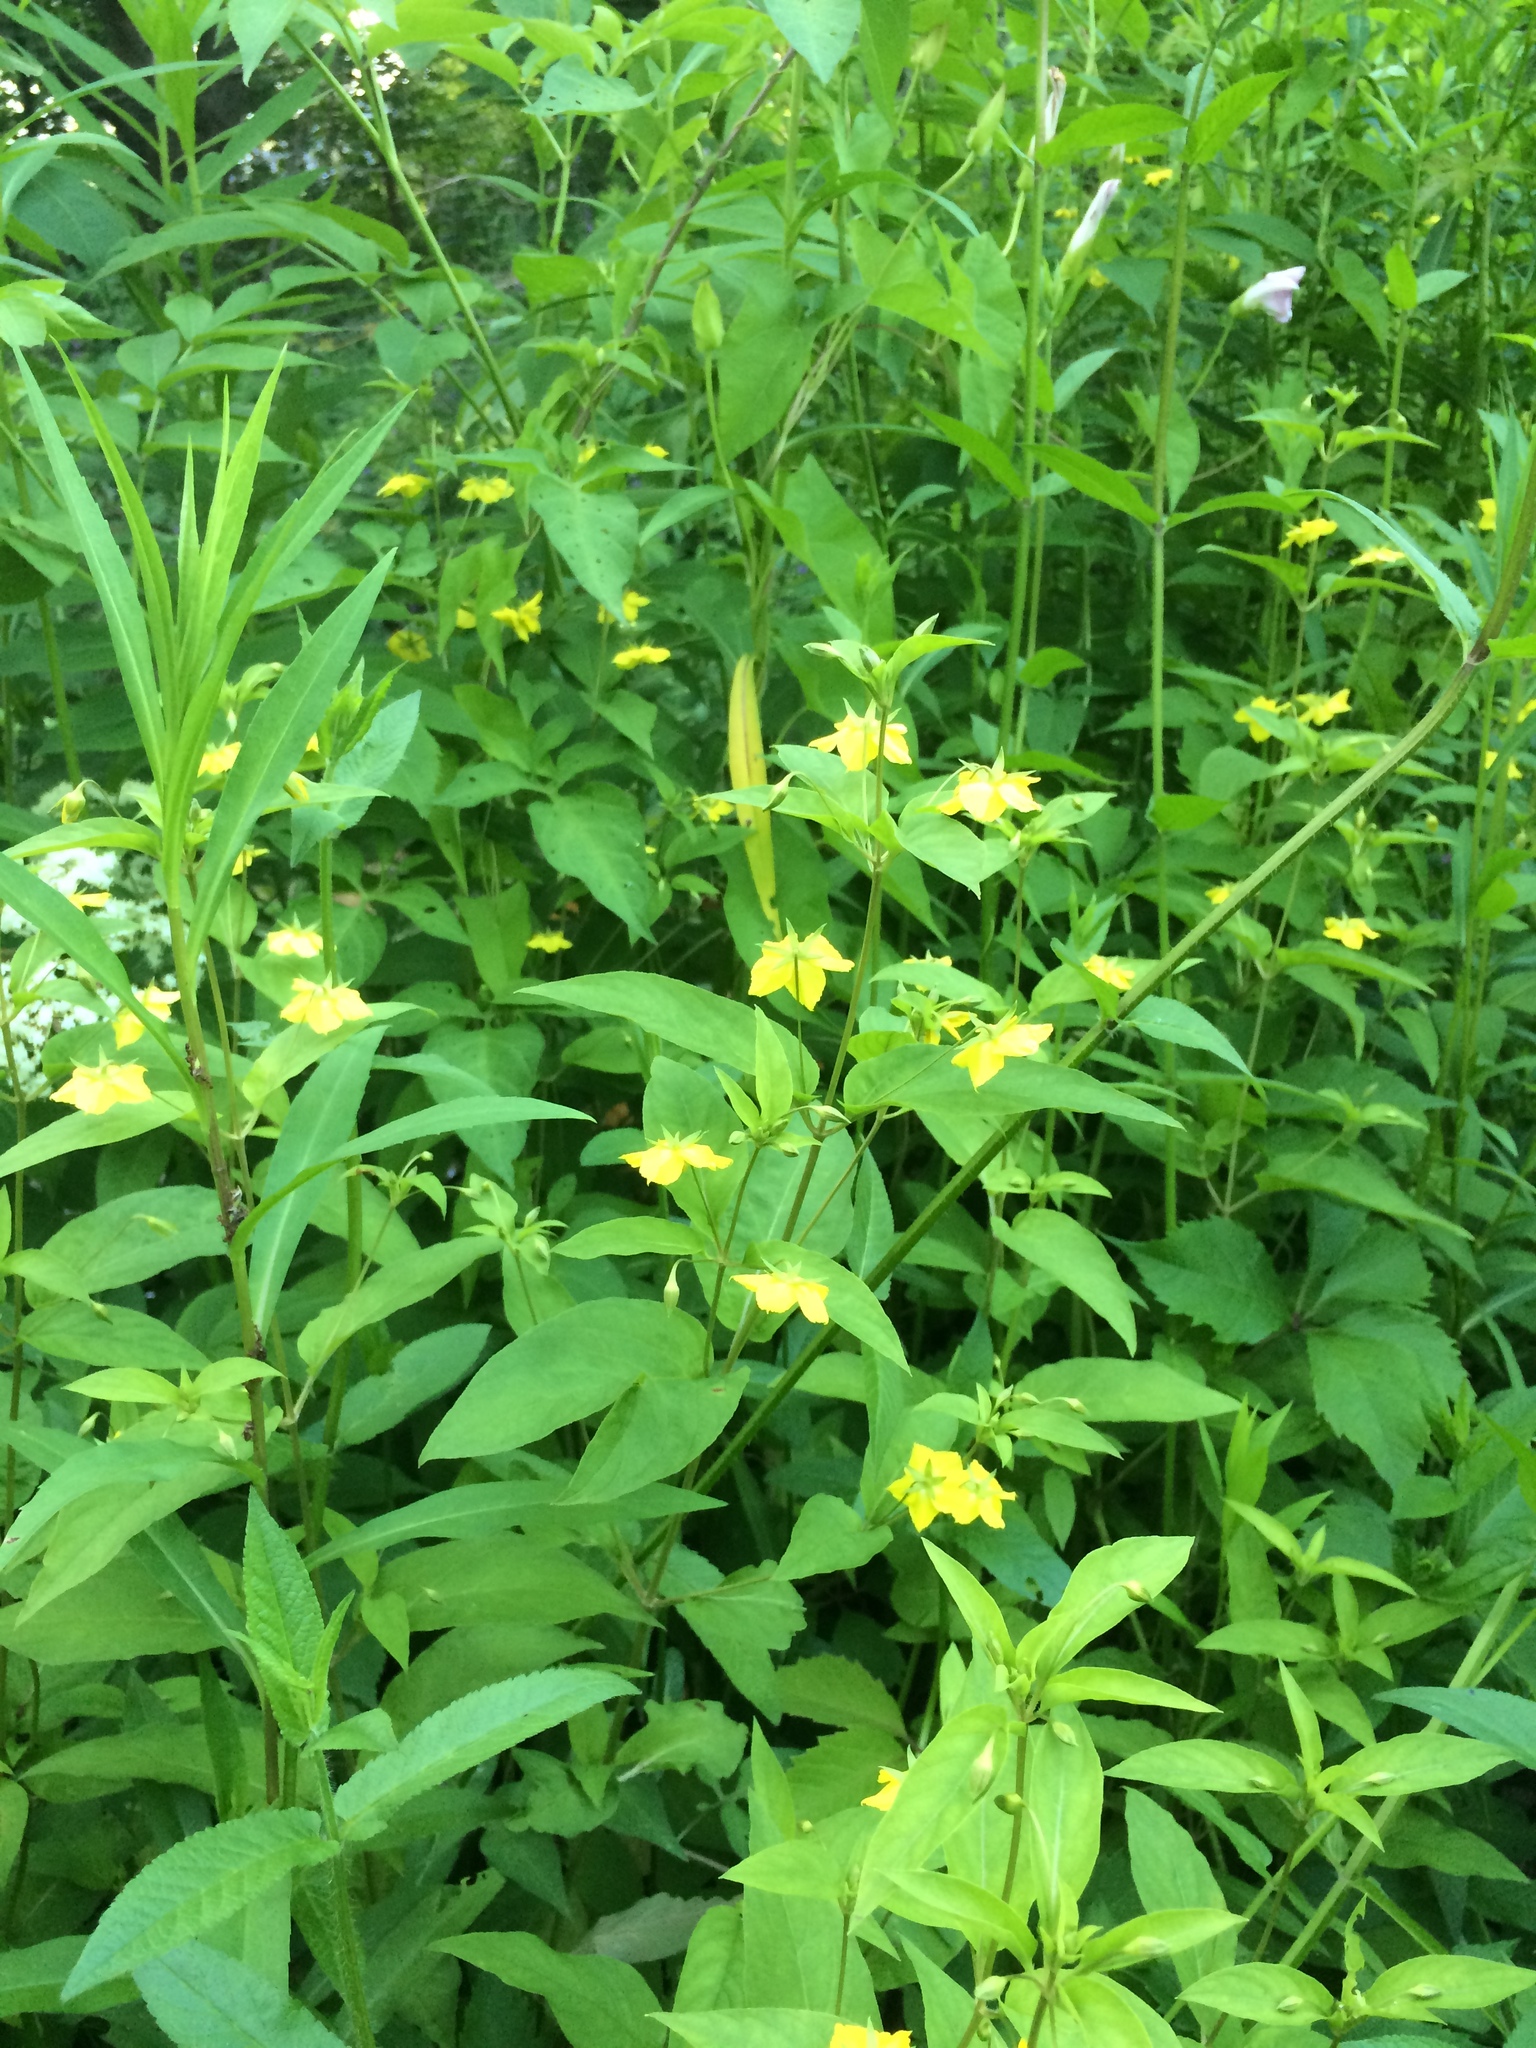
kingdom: Plantae
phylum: Tracheophyta
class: Magnoliopsida
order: Ericales
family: Primulaceae
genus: Lysimachia
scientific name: Lysimachia ciliata
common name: Fringed loosestrife
